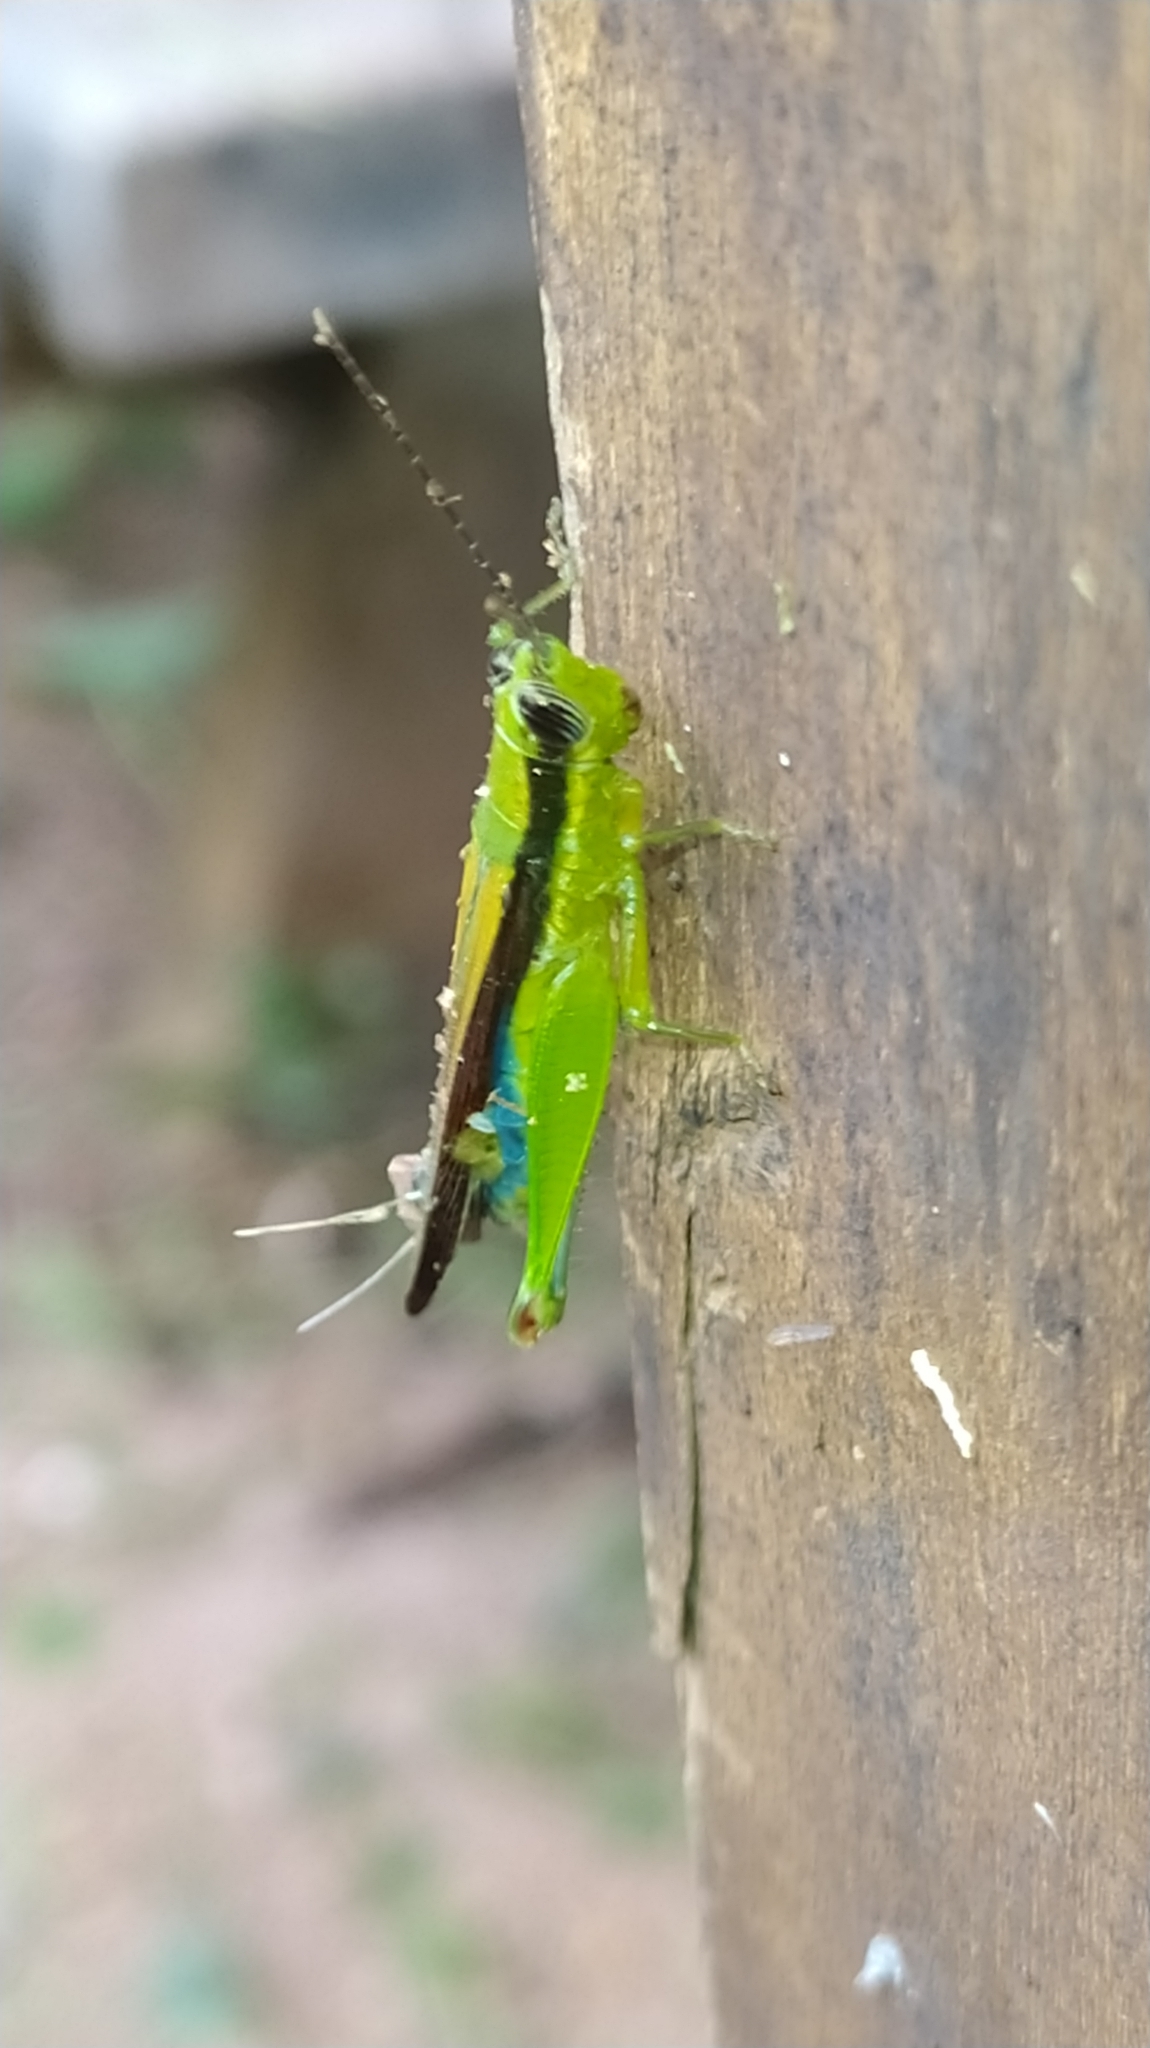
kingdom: Animalia
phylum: Arthropoda
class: Insecta
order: Orthoptera
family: Acrididae
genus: Stenopola
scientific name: Stenopola puncticeps
